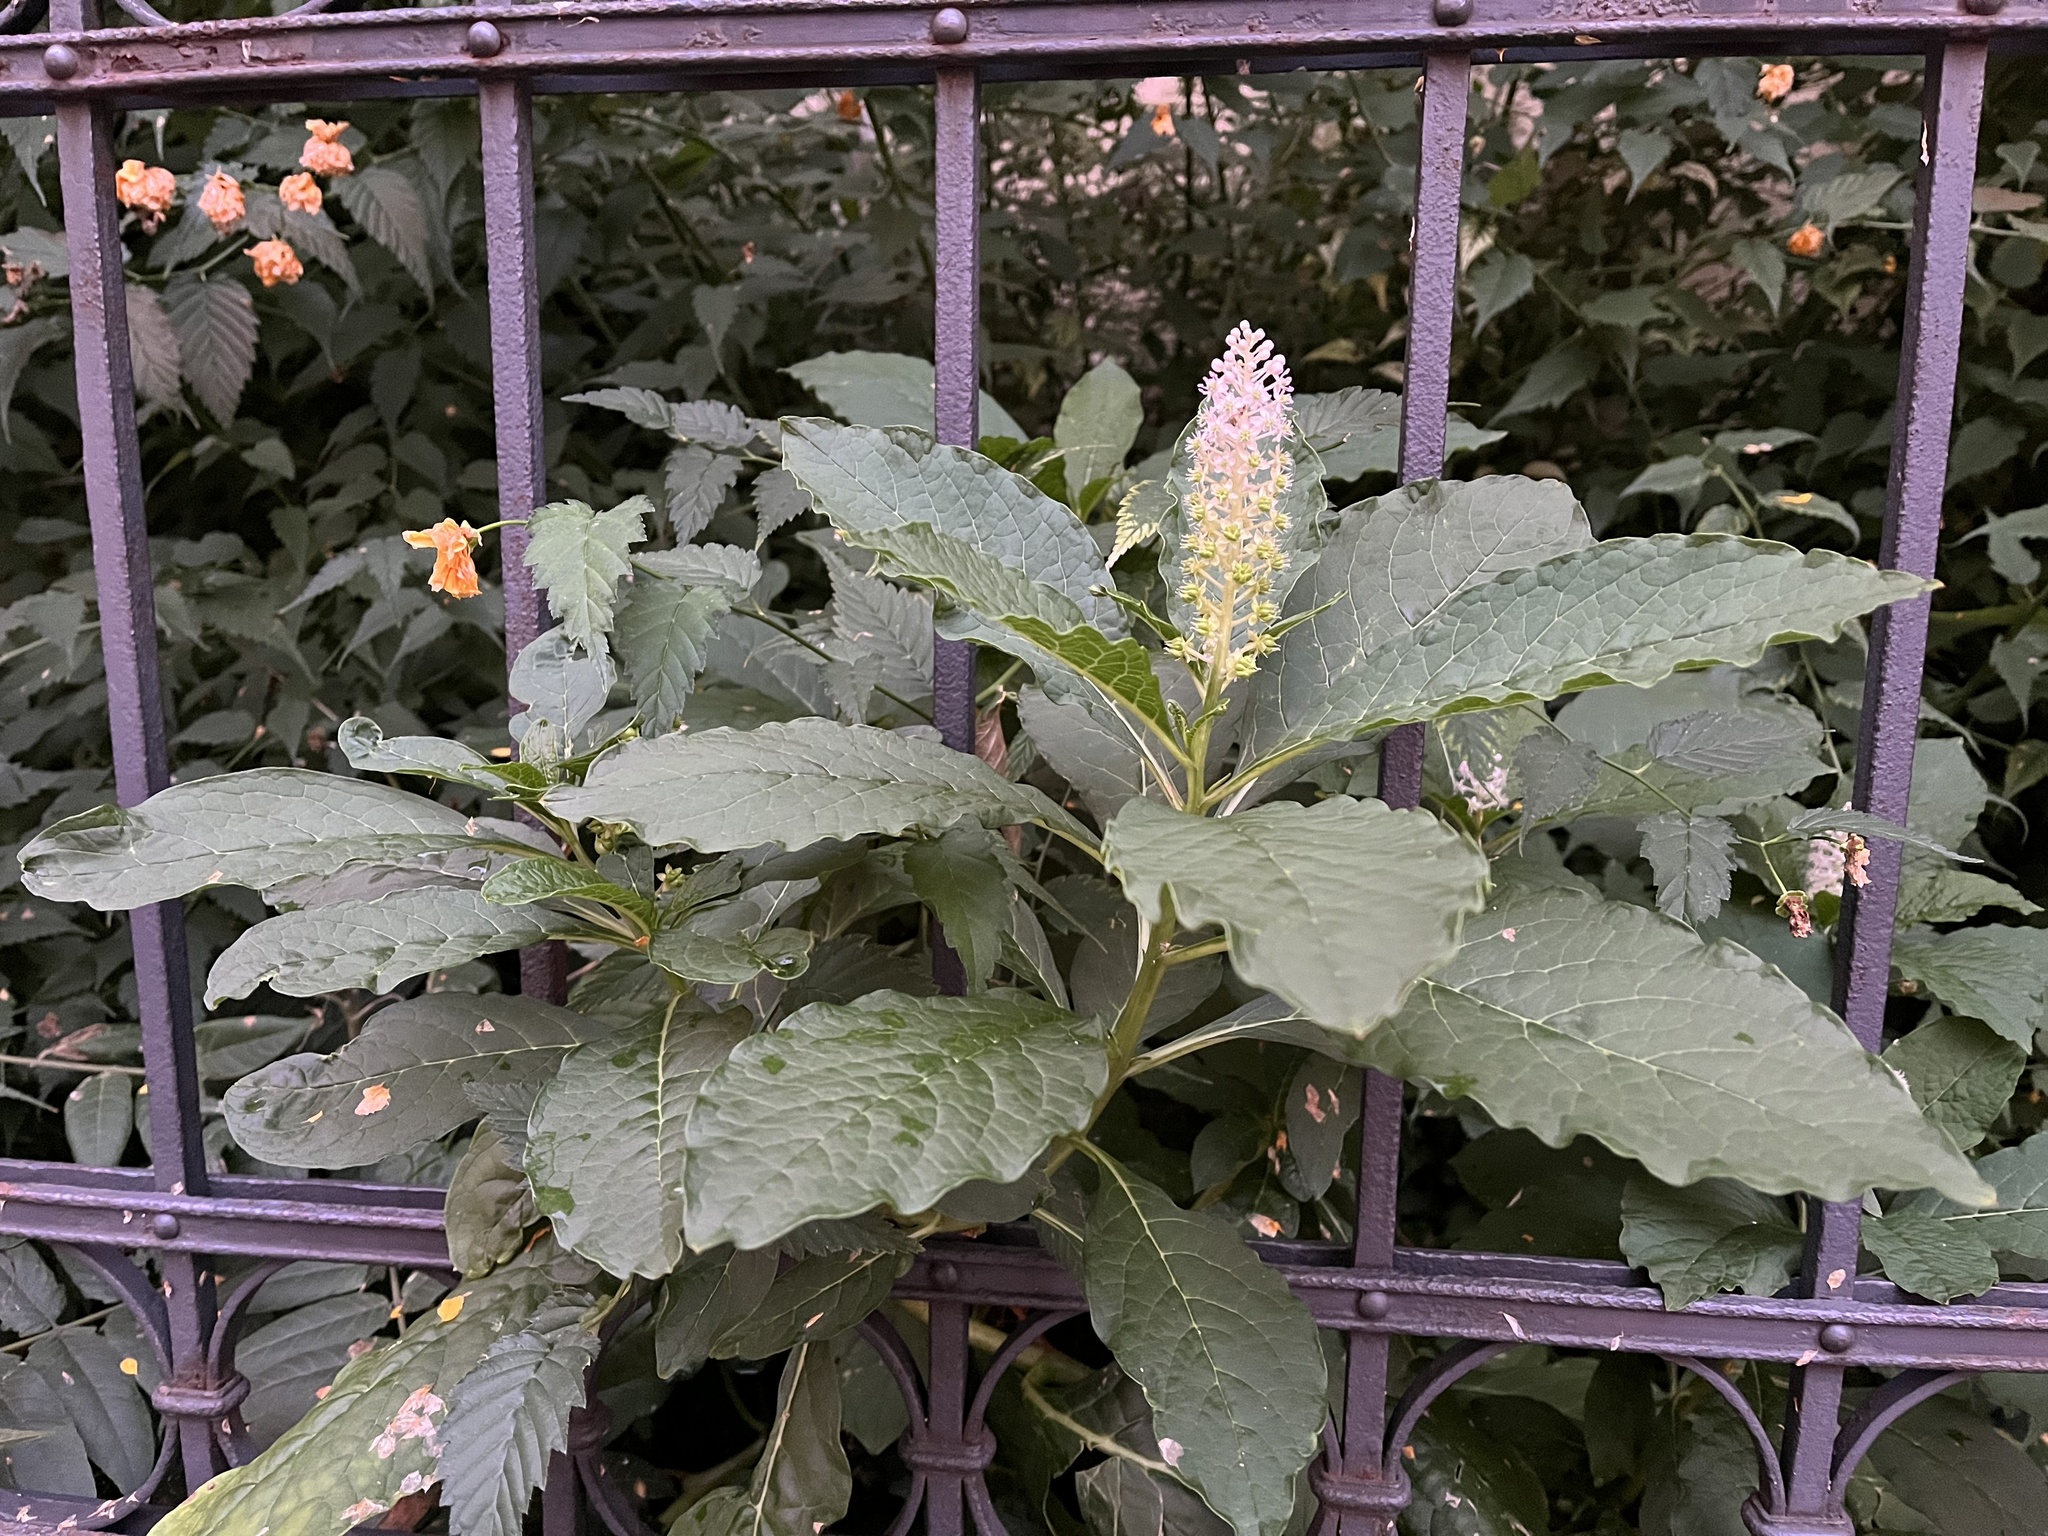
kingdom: Plantae
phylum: Tracheophyta
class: Magnoliopsida
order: Caryophyllales
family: Phytolaccaceae
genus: Phytolacca
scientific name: Phytolacca acinosa
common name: Indian pokeweed
